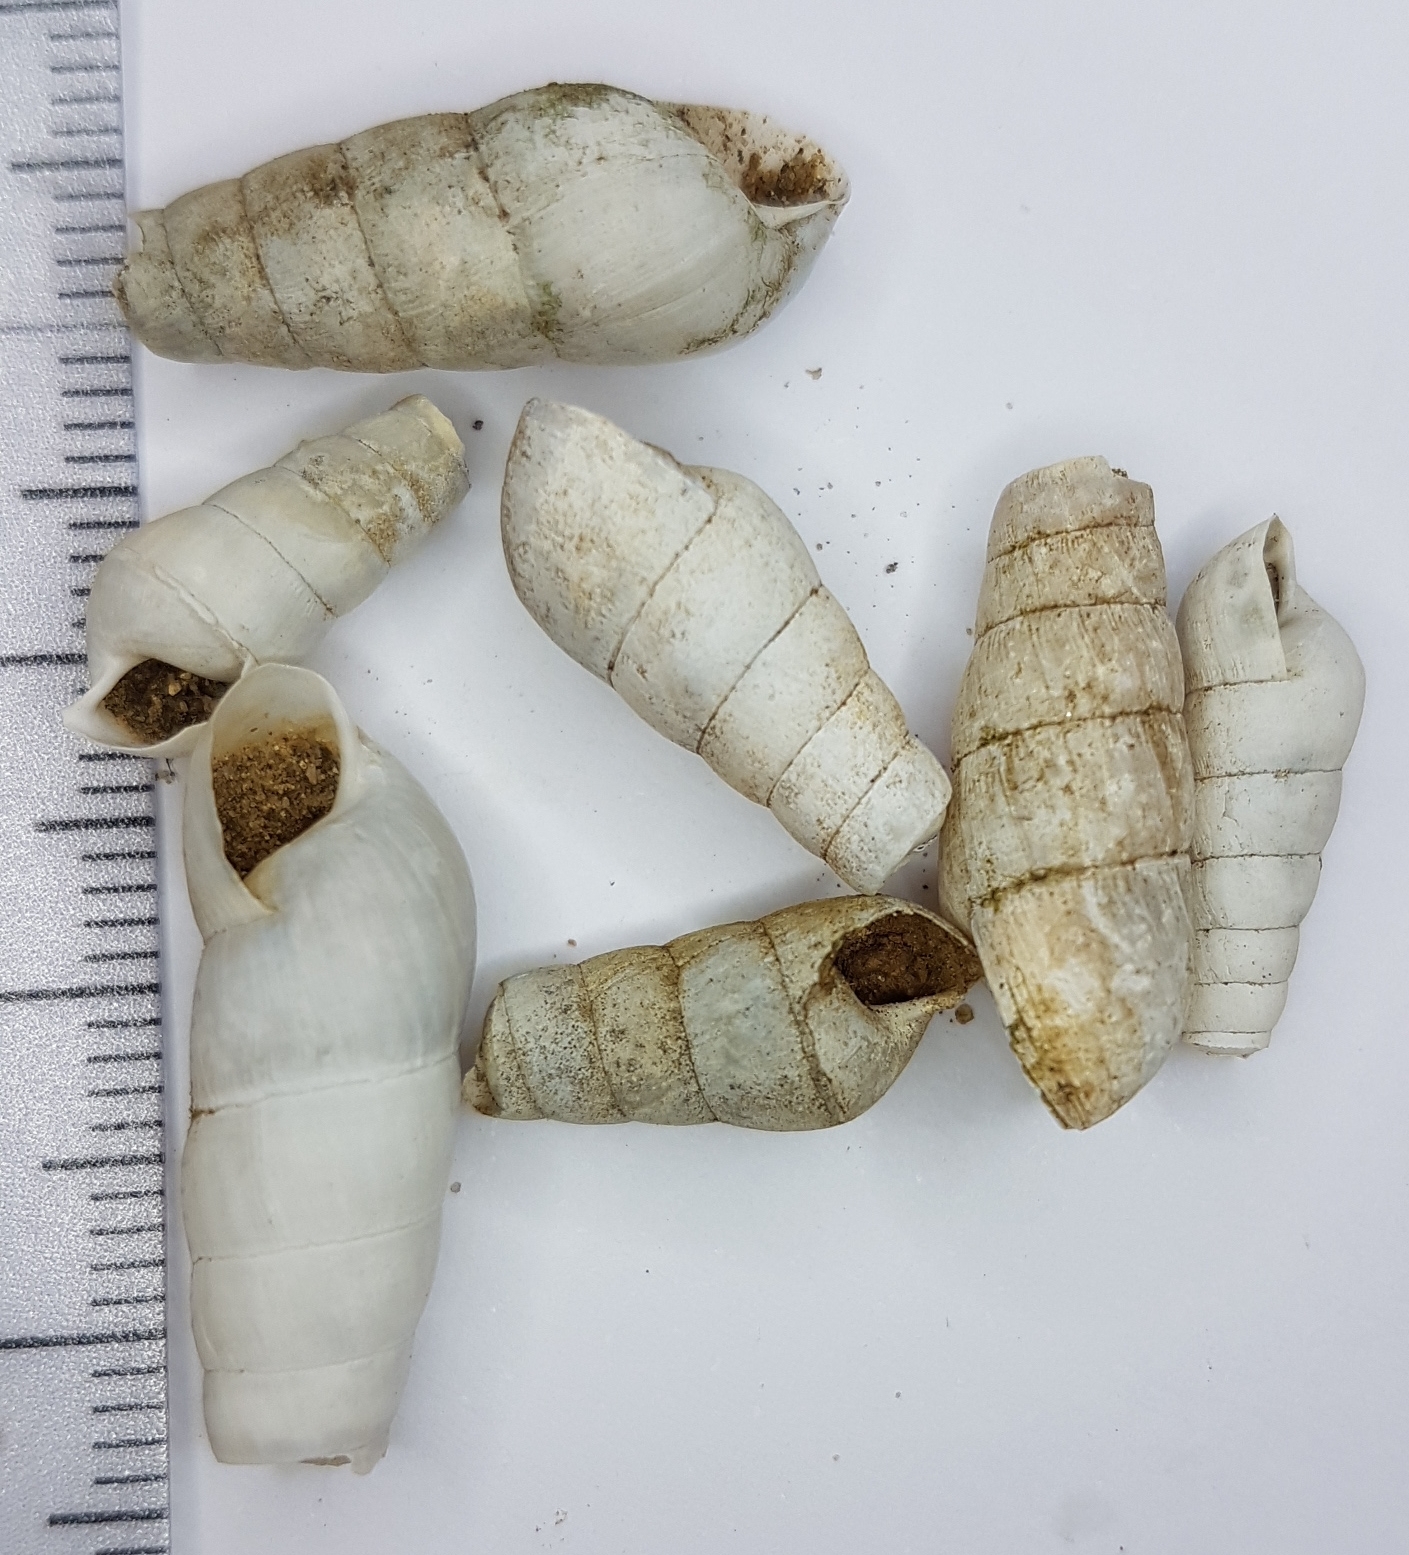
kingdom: Animalia
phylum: Mollusca
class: Gastropoda
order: Stylommatophora
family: Achatinidae
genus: Rumina
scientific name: Rumina decollata
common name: Decollate snail
